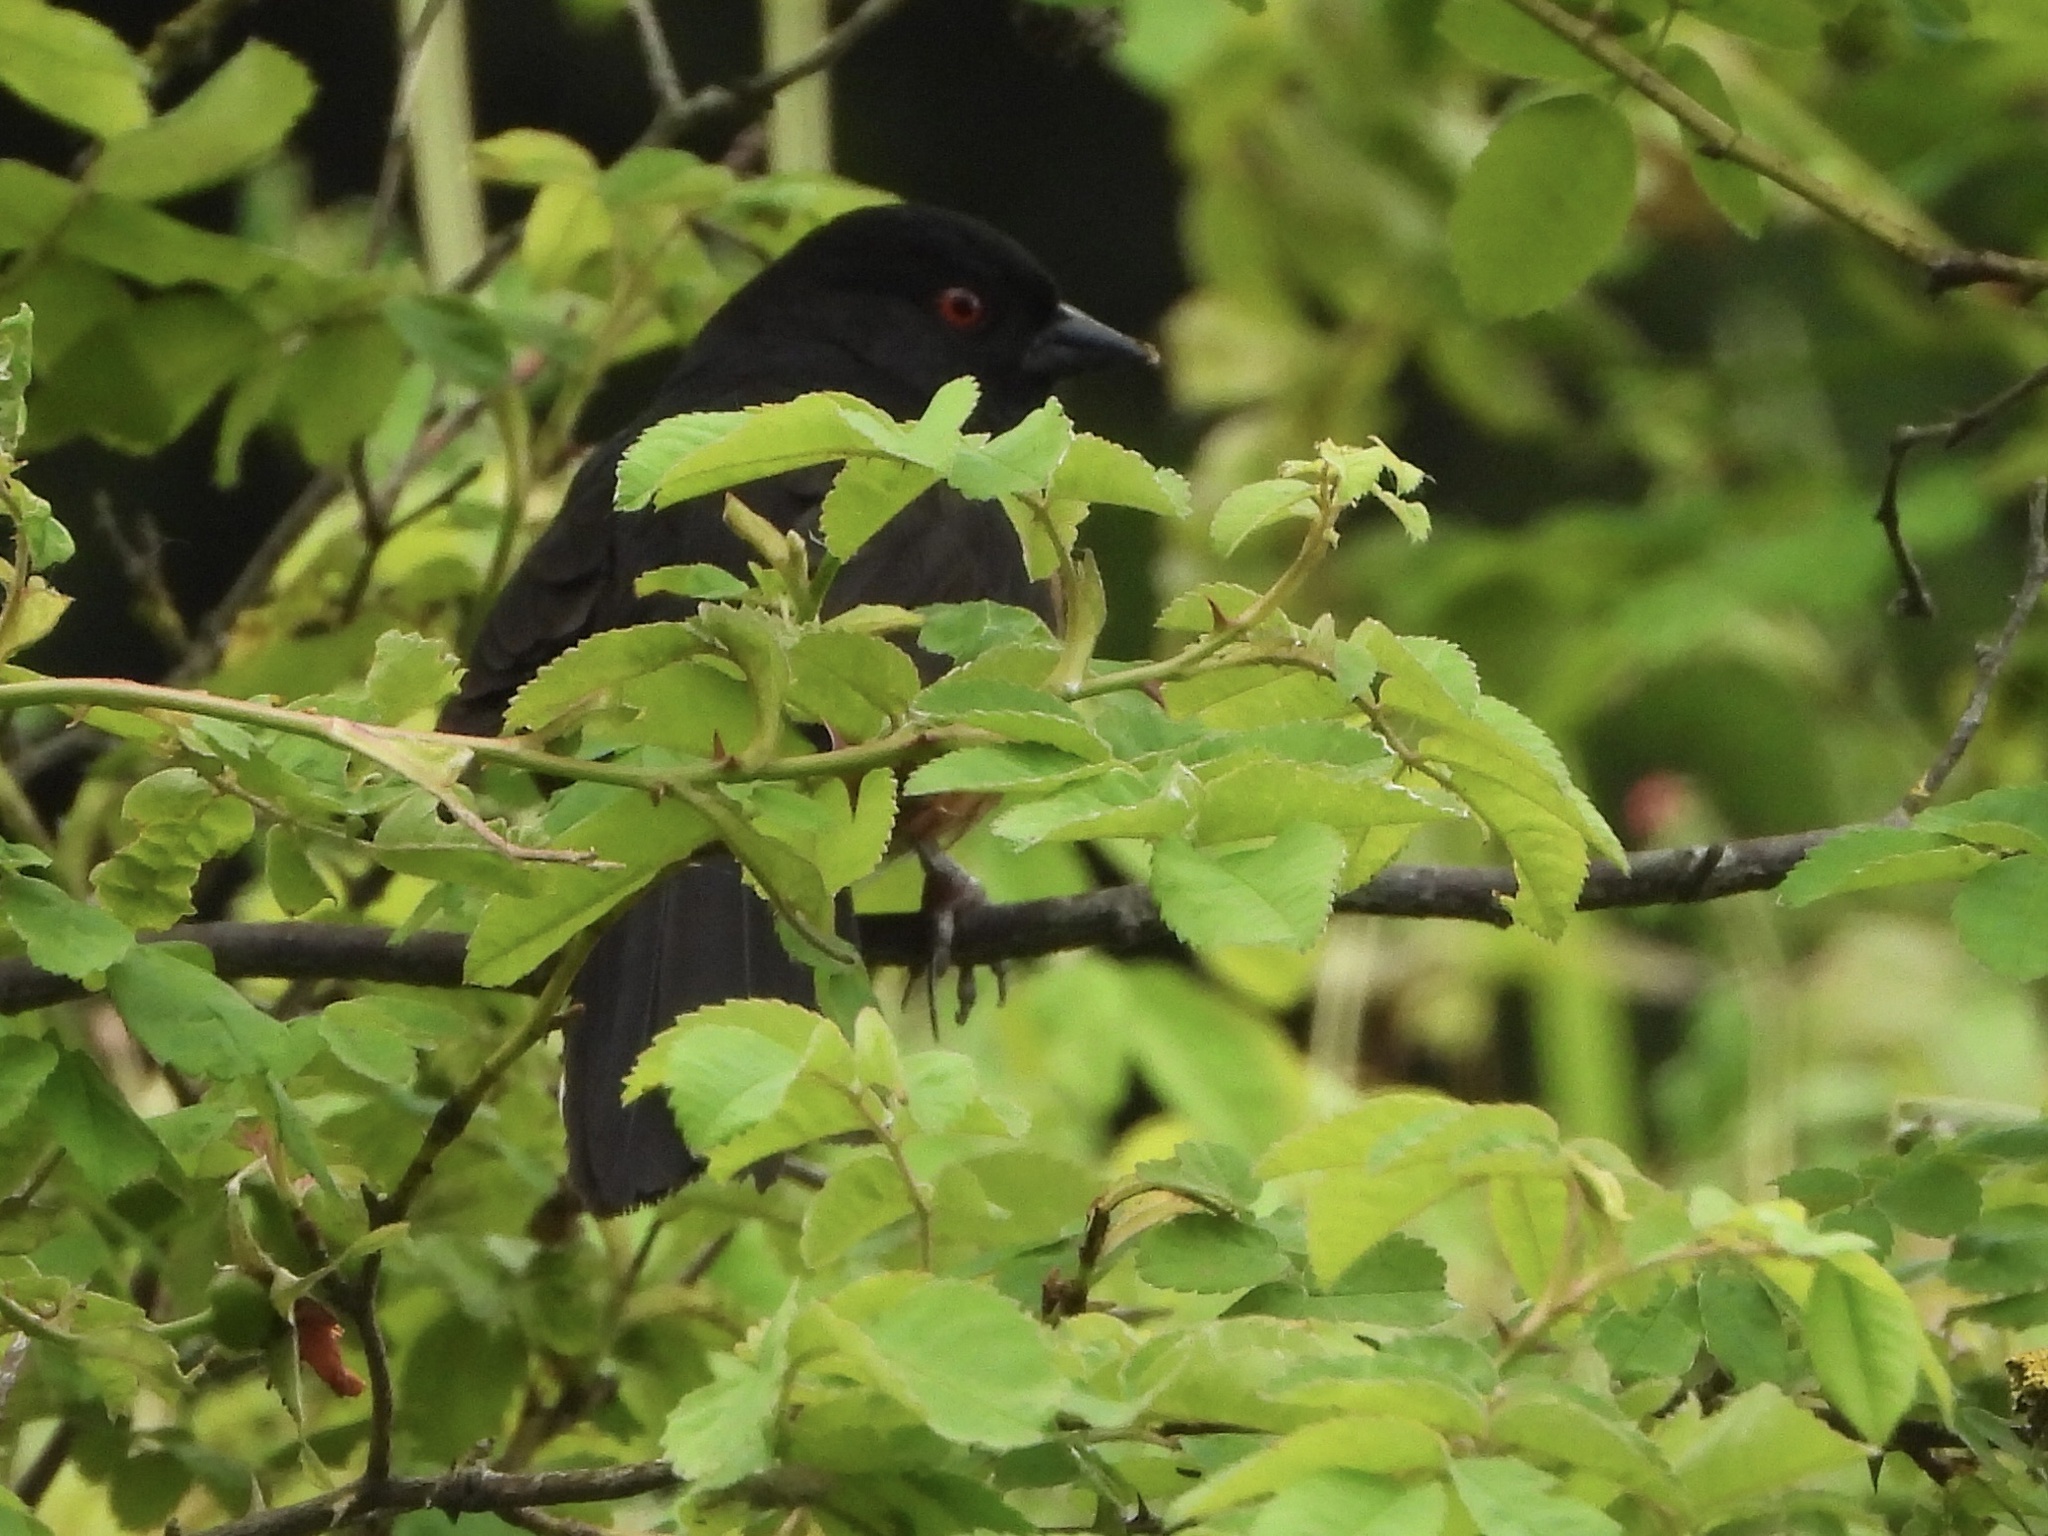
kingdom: Animalia
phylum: Chordata
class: Aves
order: Passeriformes
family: Passerellidae
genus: Pipilo
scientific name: Pipilo maculatus
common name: Spotted towhee
